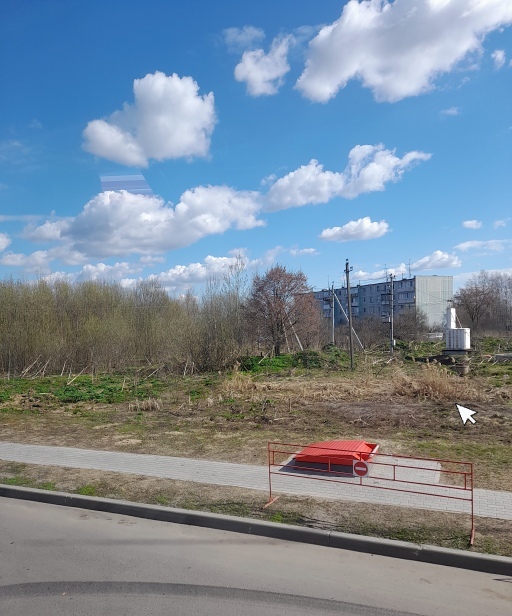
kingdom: Plantae
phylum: Tracheophyta
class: Liliopsida
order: Poales
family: Poaceae
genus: Phragmites
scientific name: Phragmites australis
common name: Common reed
